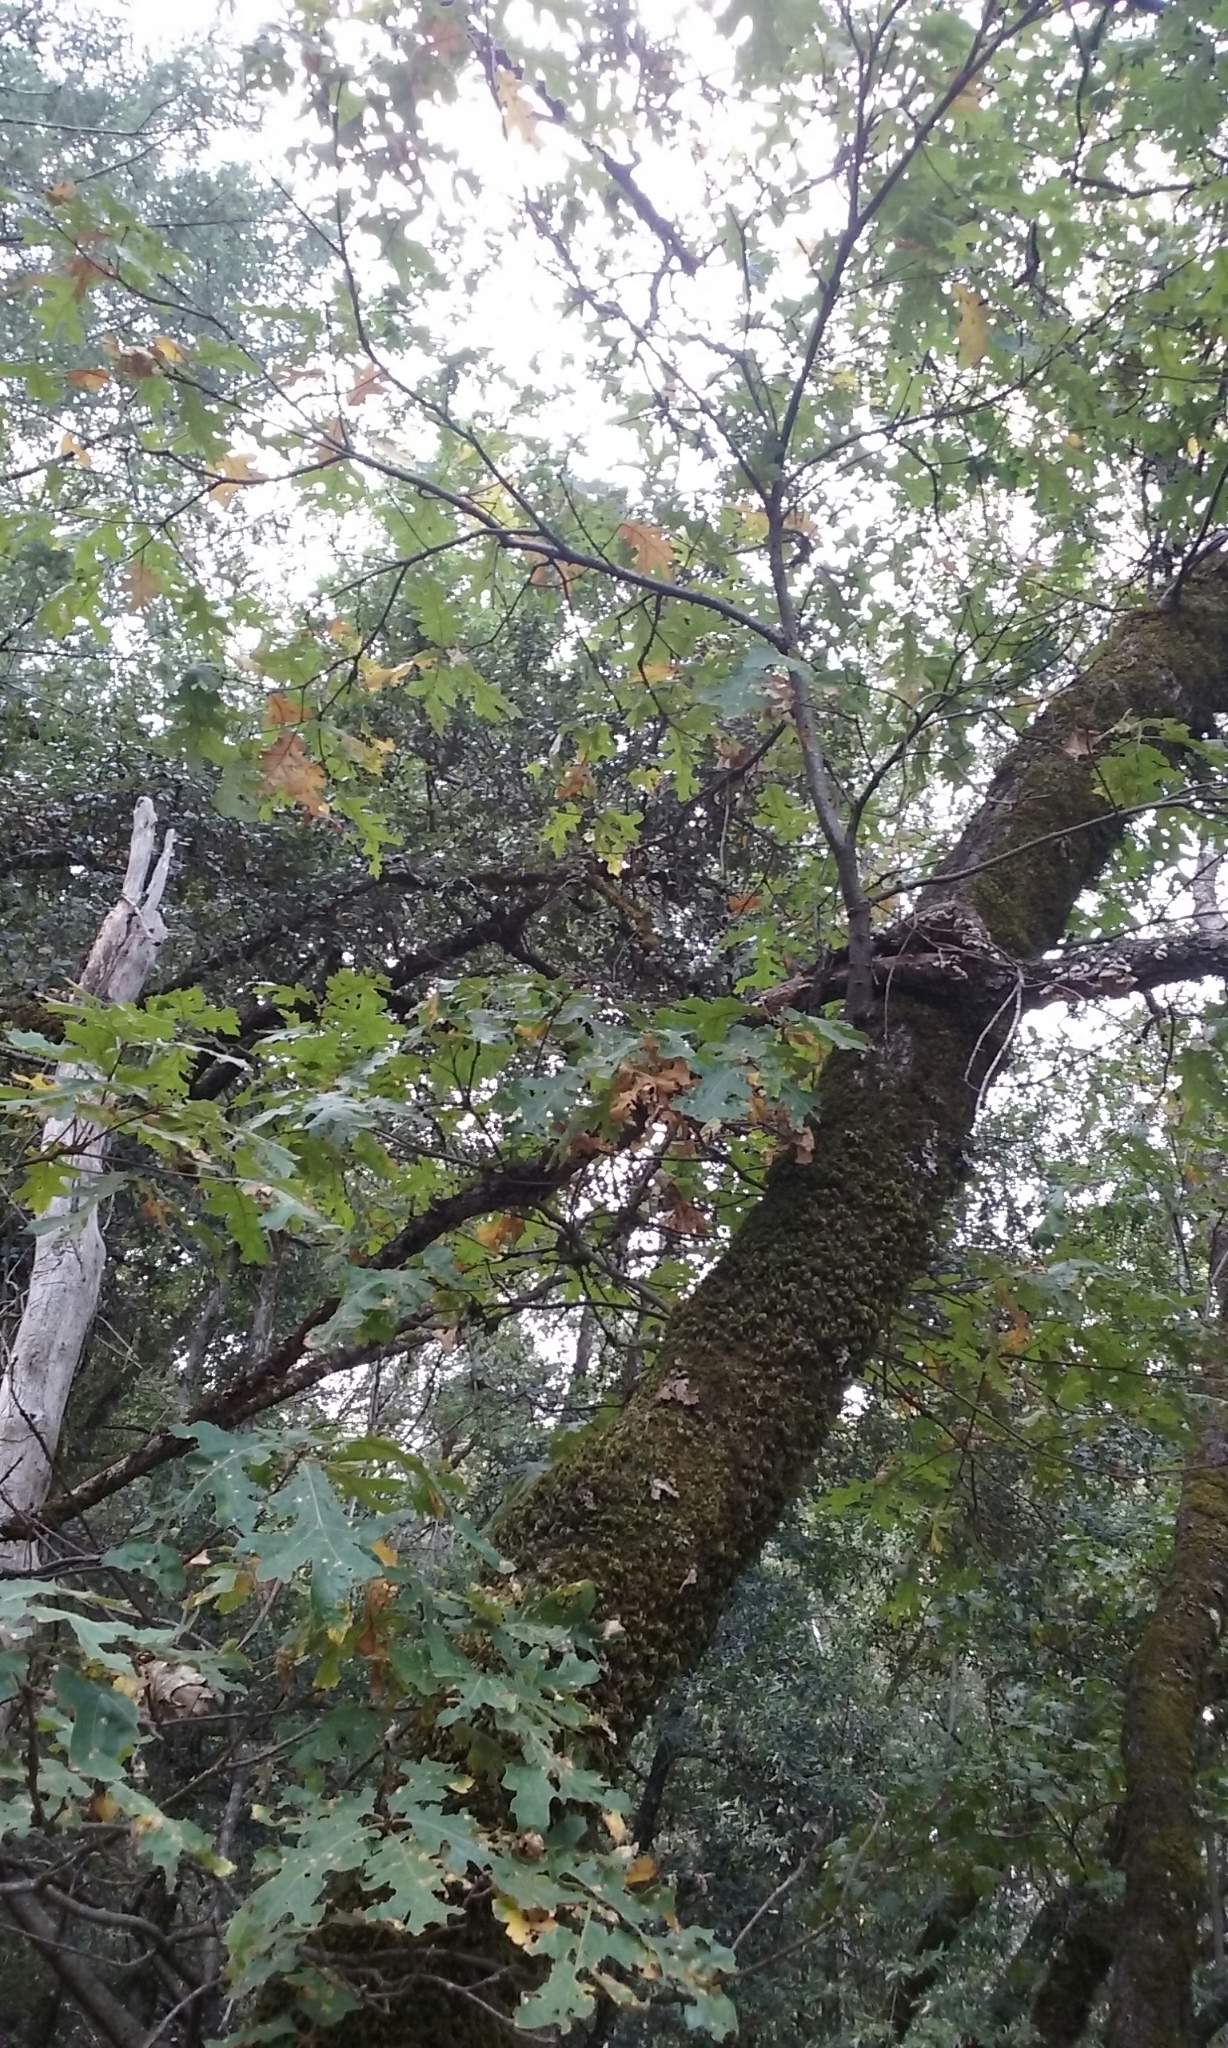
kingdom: Plantae
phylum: Tracheophyta
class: Magnoliopsida
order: Fagales
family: Fagaceae
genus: Quercus
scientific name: Quercus kelloggii
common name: California black oak
